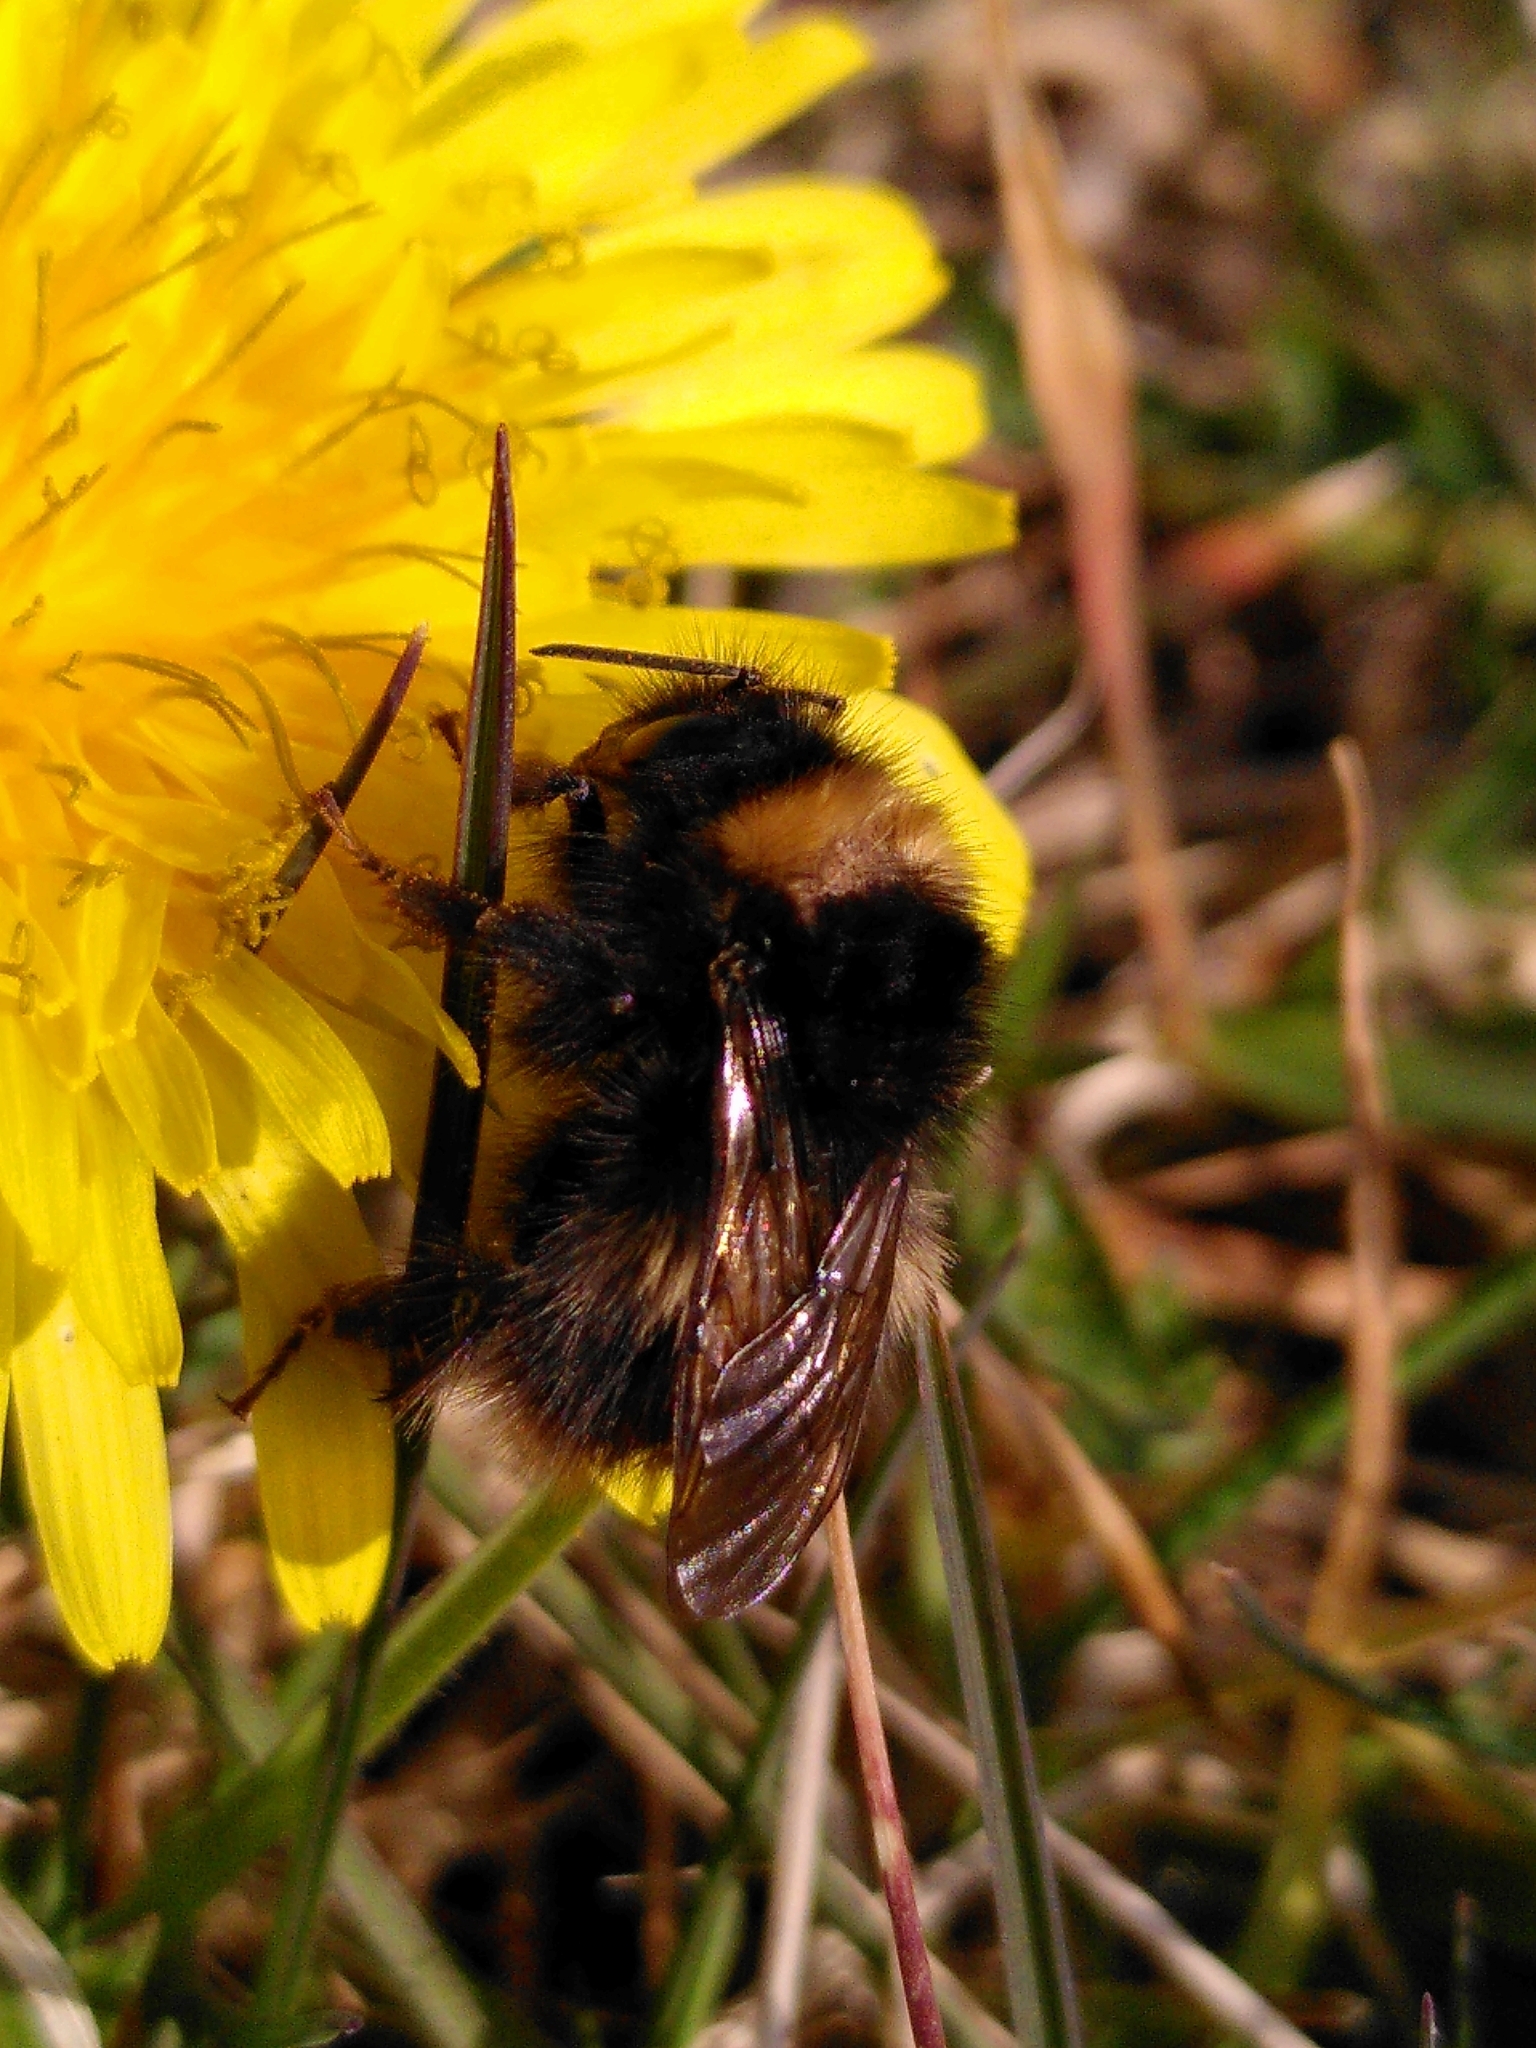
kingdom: Animalia
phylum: Arthropoda
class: Insecta
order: Hymenoptera
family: Apidae
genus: Bombus
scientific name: Bombus pratorum
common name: Early humble-bee
